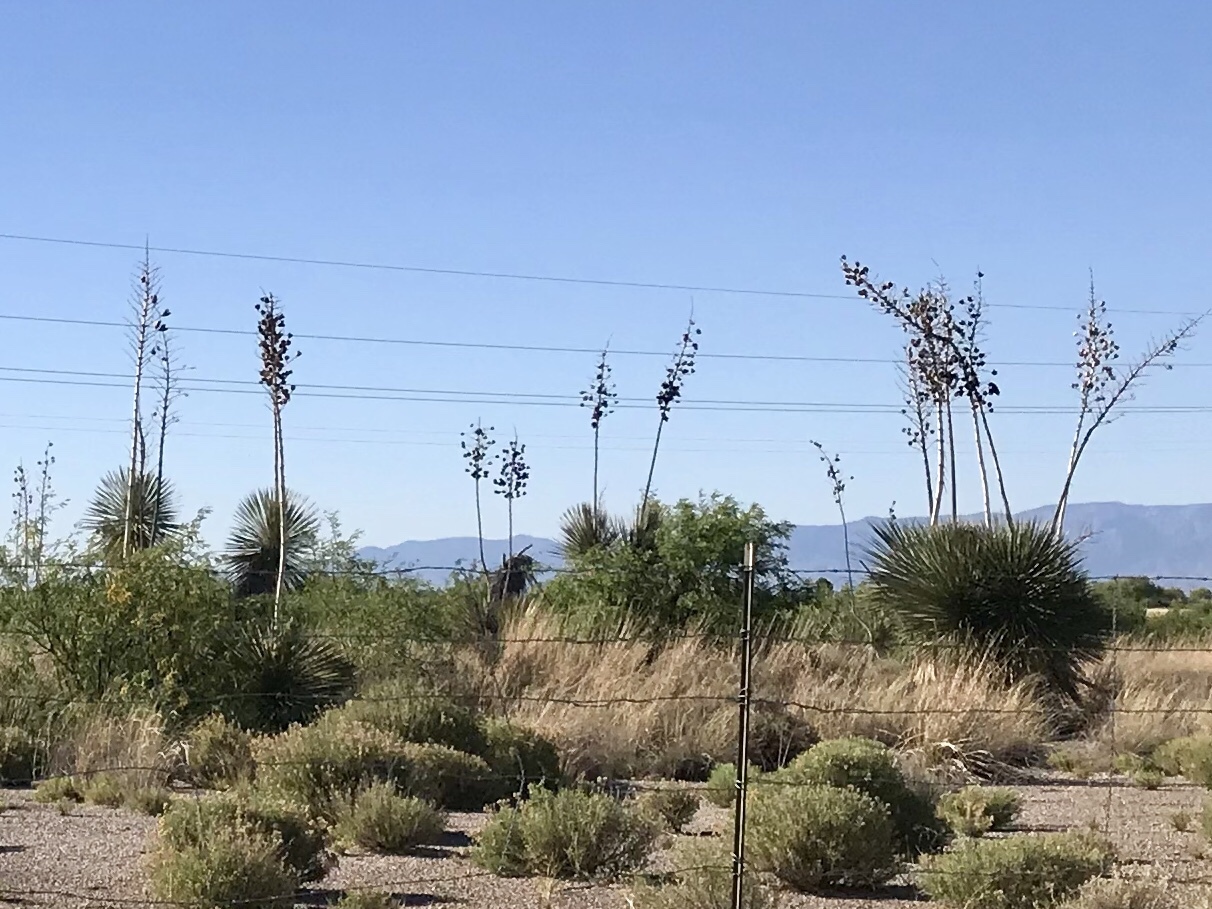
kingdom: Plantae
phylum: Tracheophyta
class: Liliopsida
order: Asparagales
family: Asparagaceae
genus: Yucca
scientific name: Yucca elata
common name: Palmella
